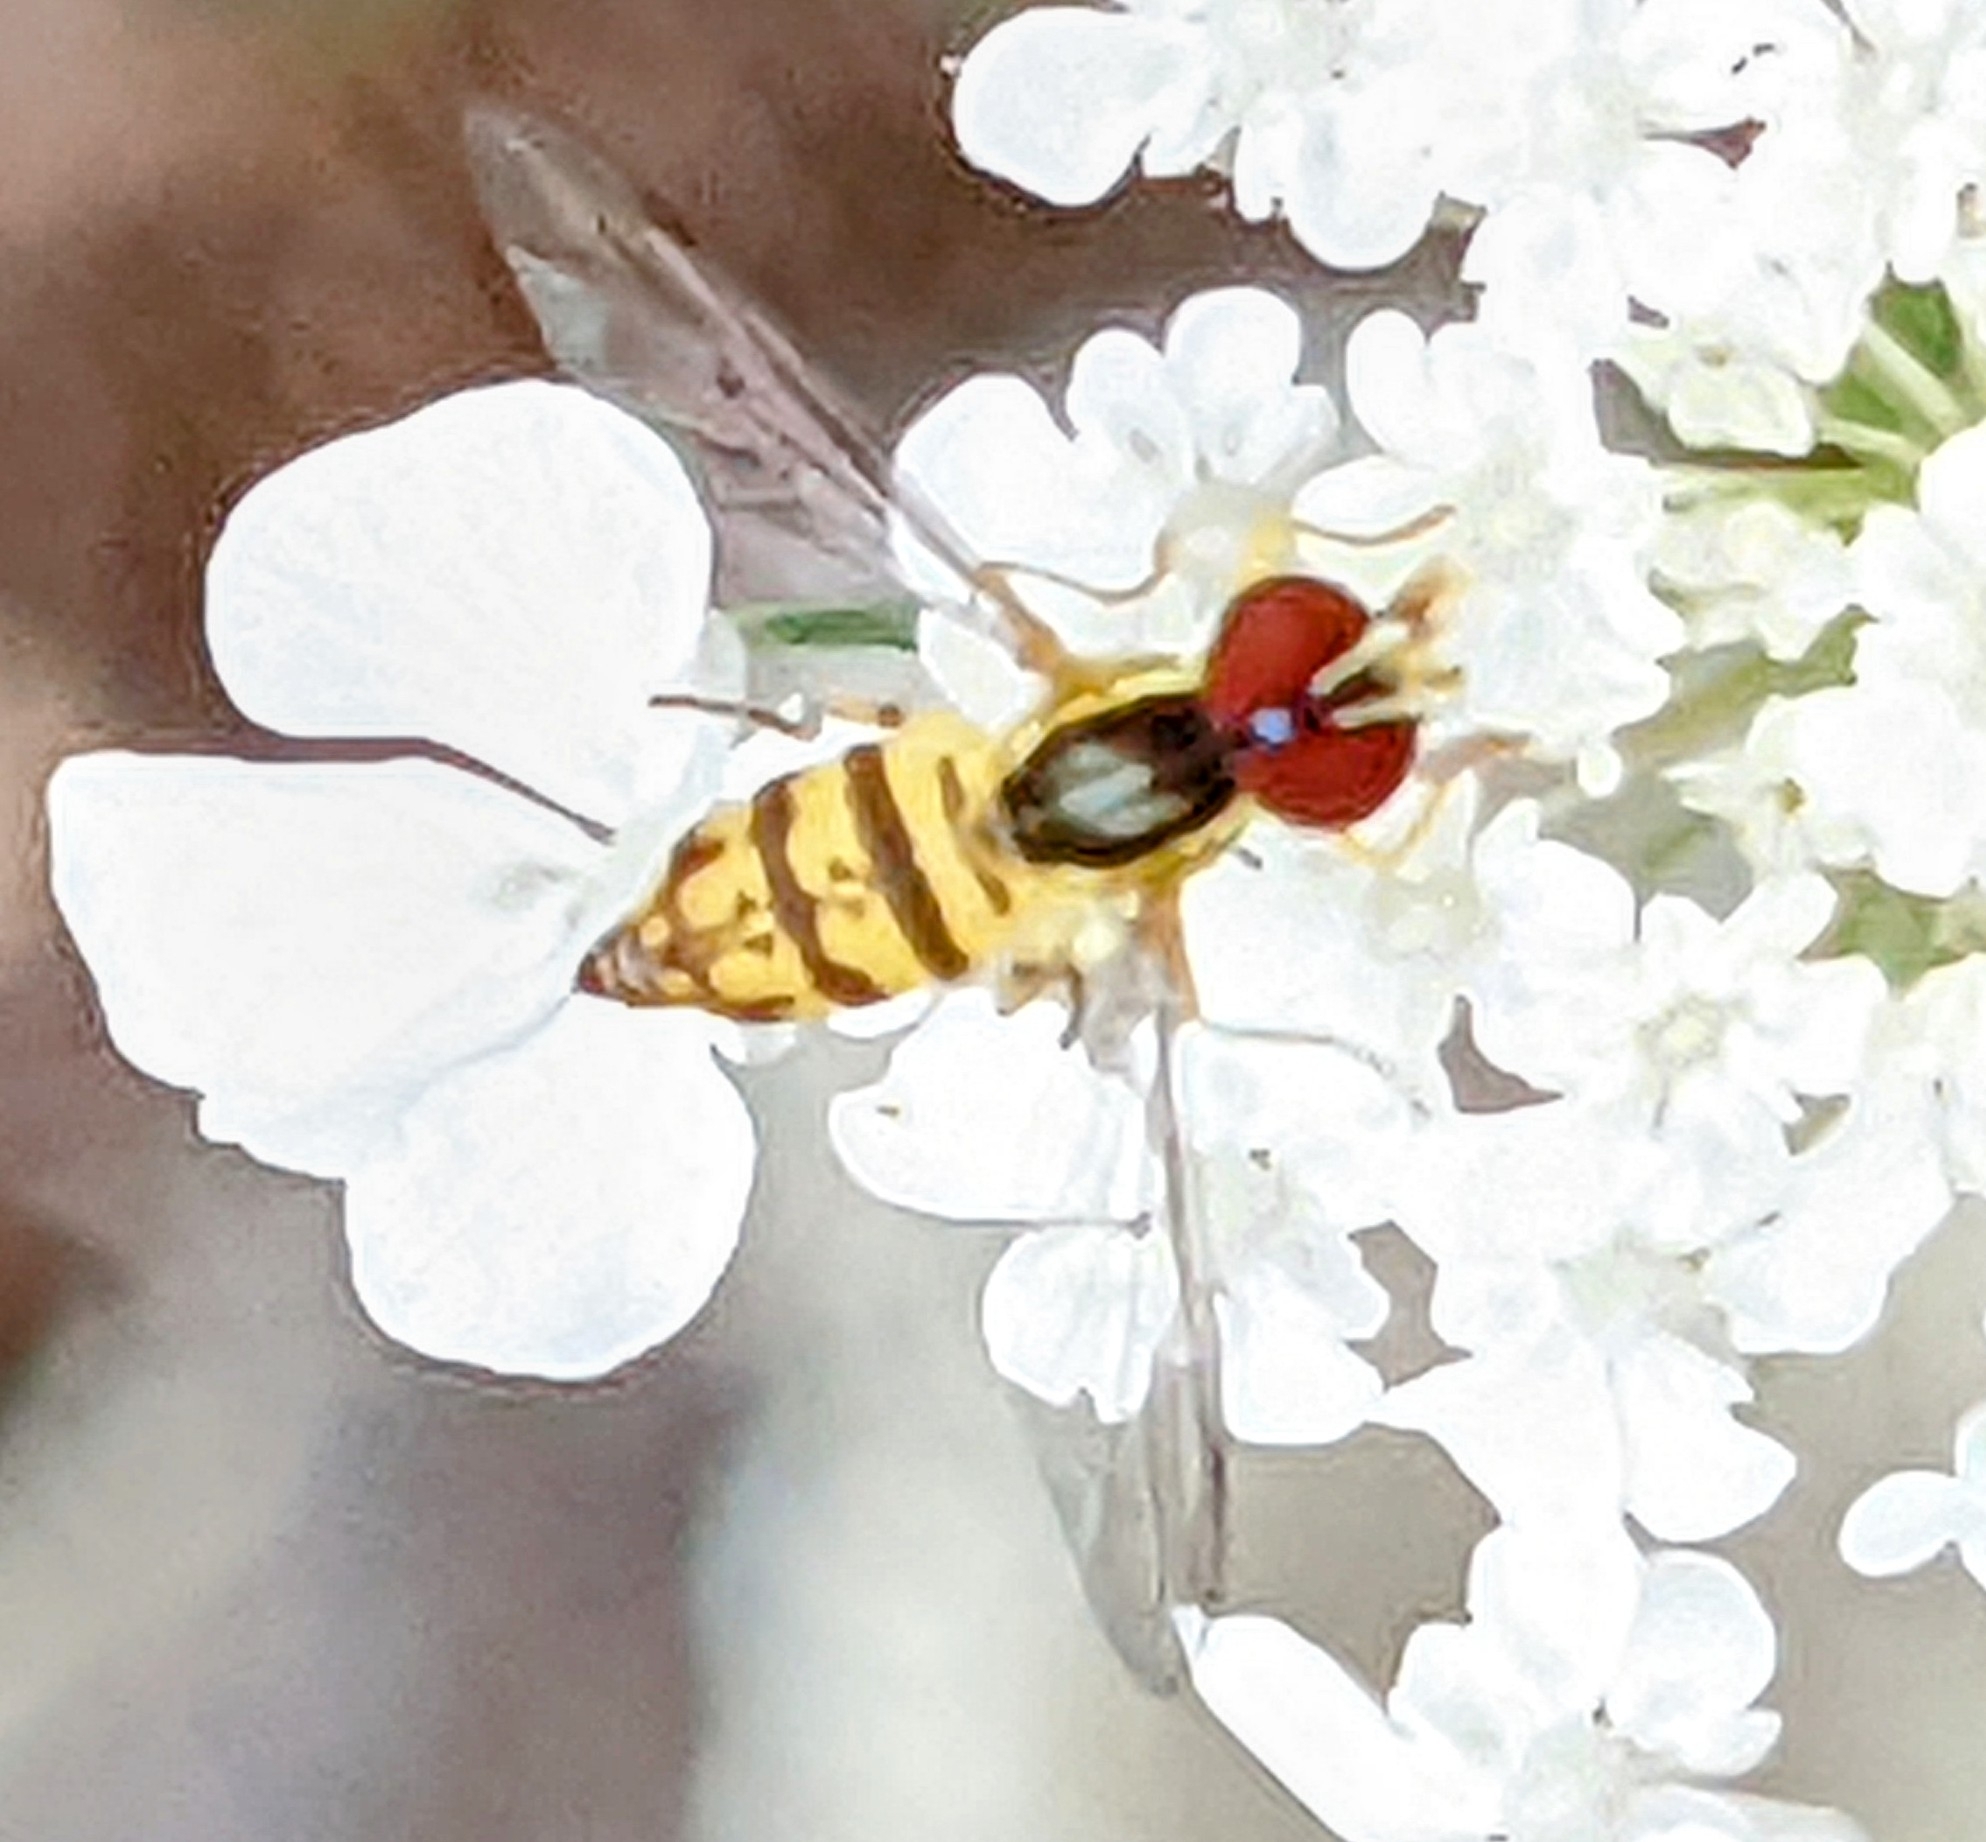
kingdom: Animalia
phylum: Arthropoda
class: Insecta
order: Diptera
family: Syrphidae
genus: Toxomerus
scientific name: Toxomerus geminatus
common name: Eastern calligrapher
